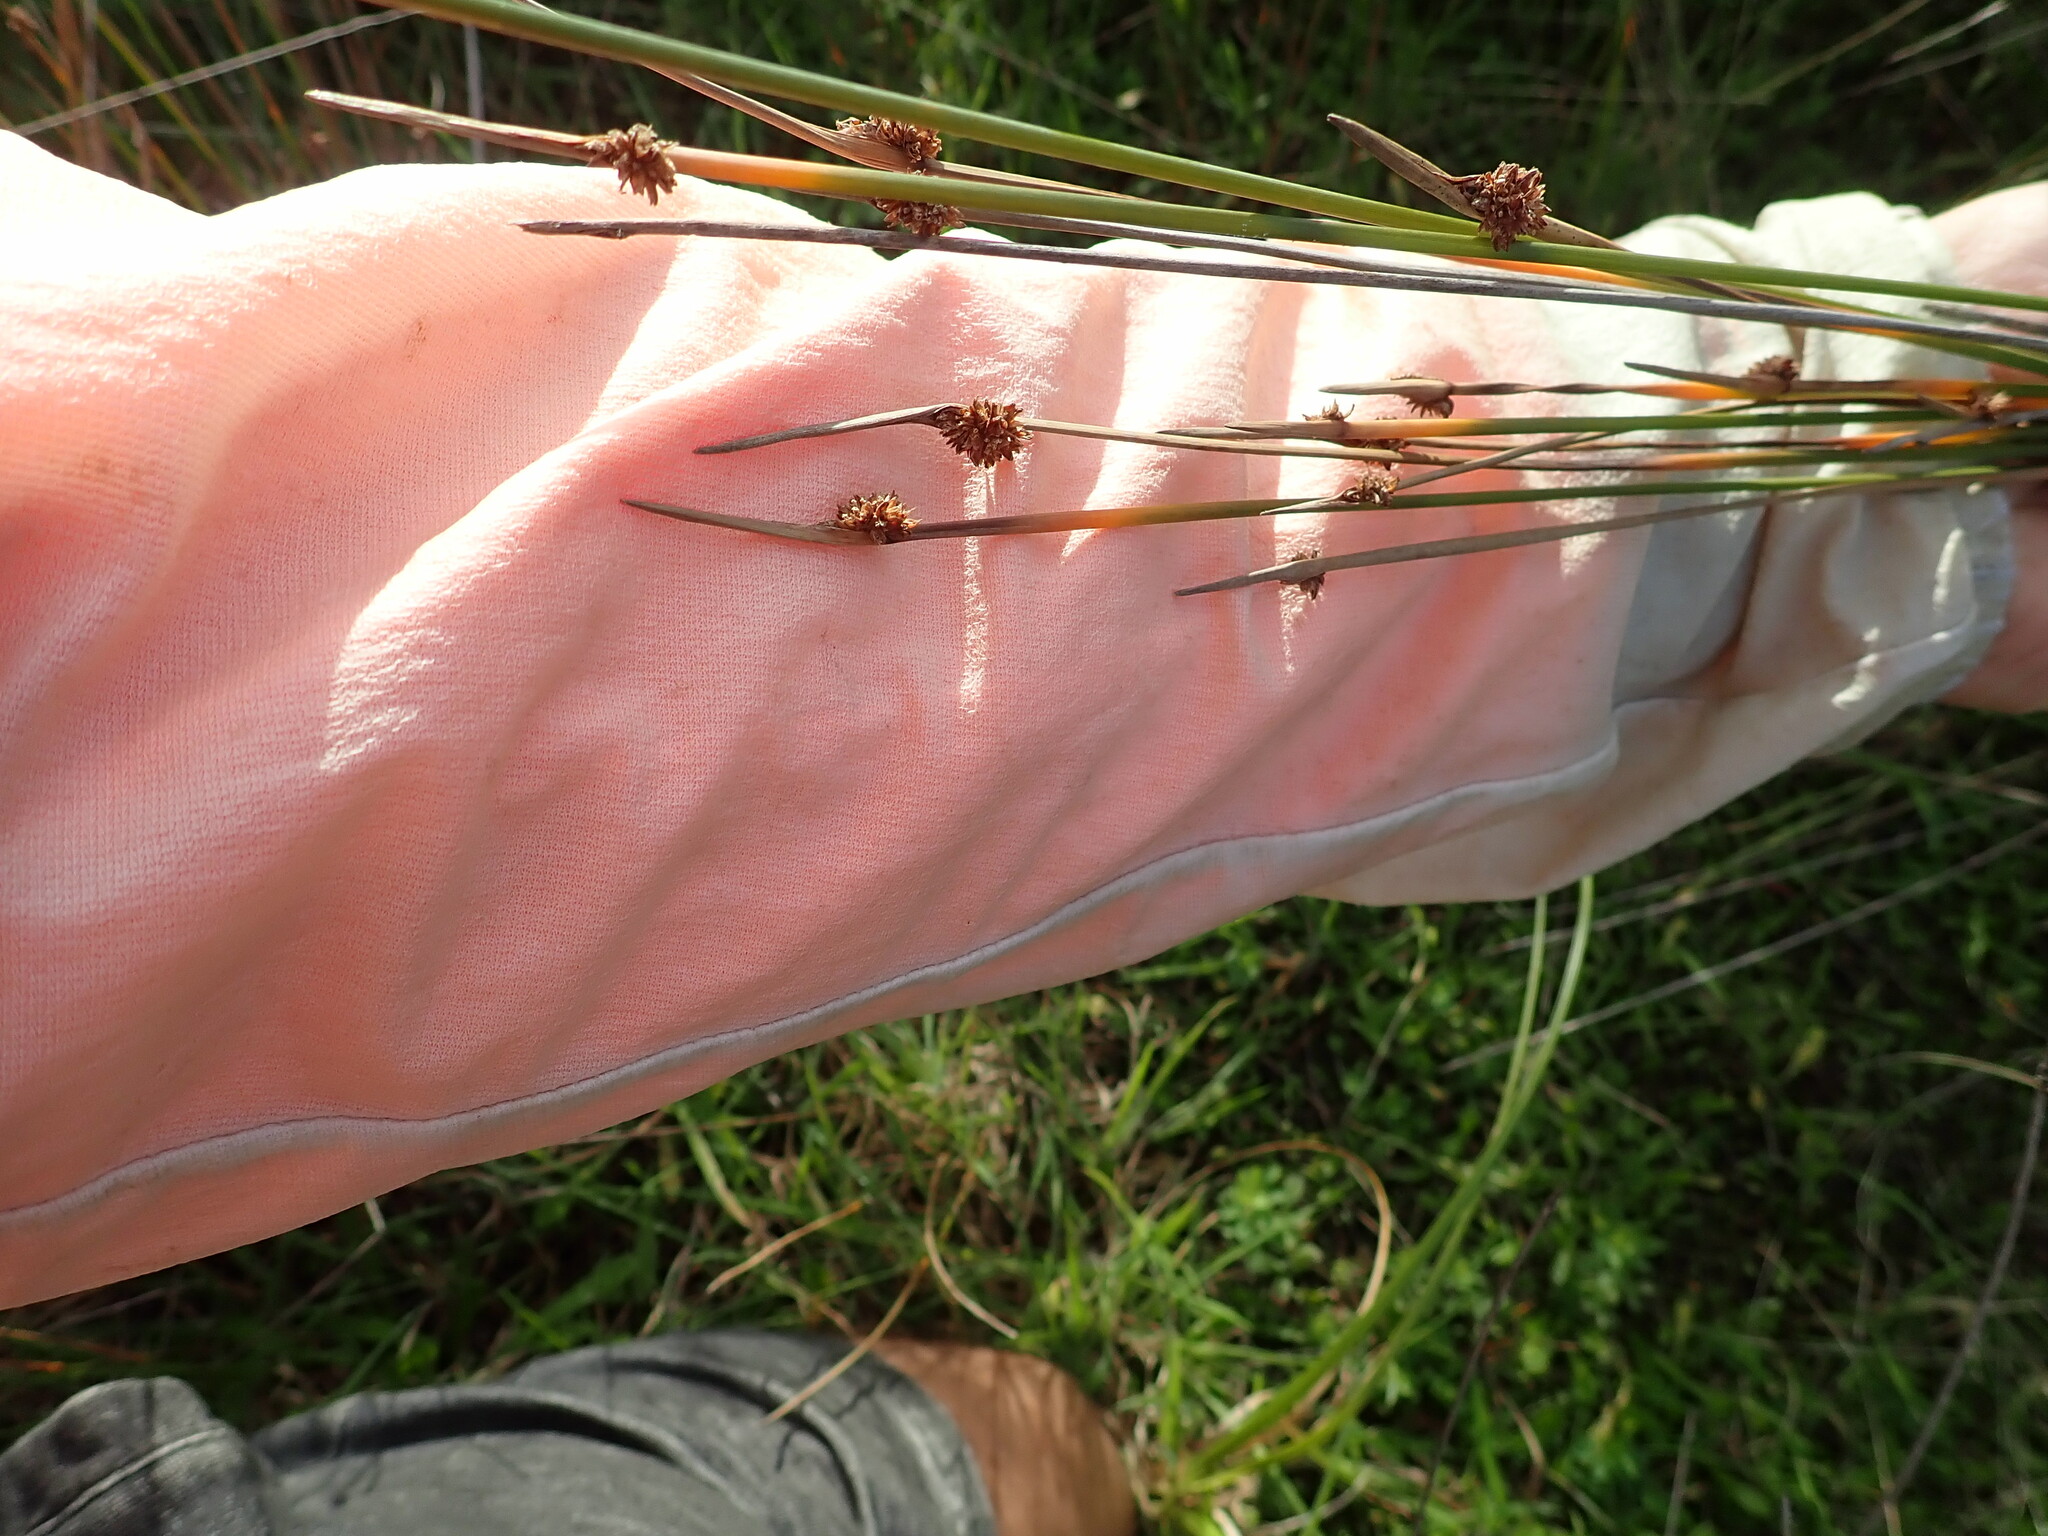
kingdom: Plantae
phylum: Tracheophyta
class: Liliopsida
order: Poales
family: Cyperaceae
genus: Ficinia
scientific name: Ficinia nodosa
